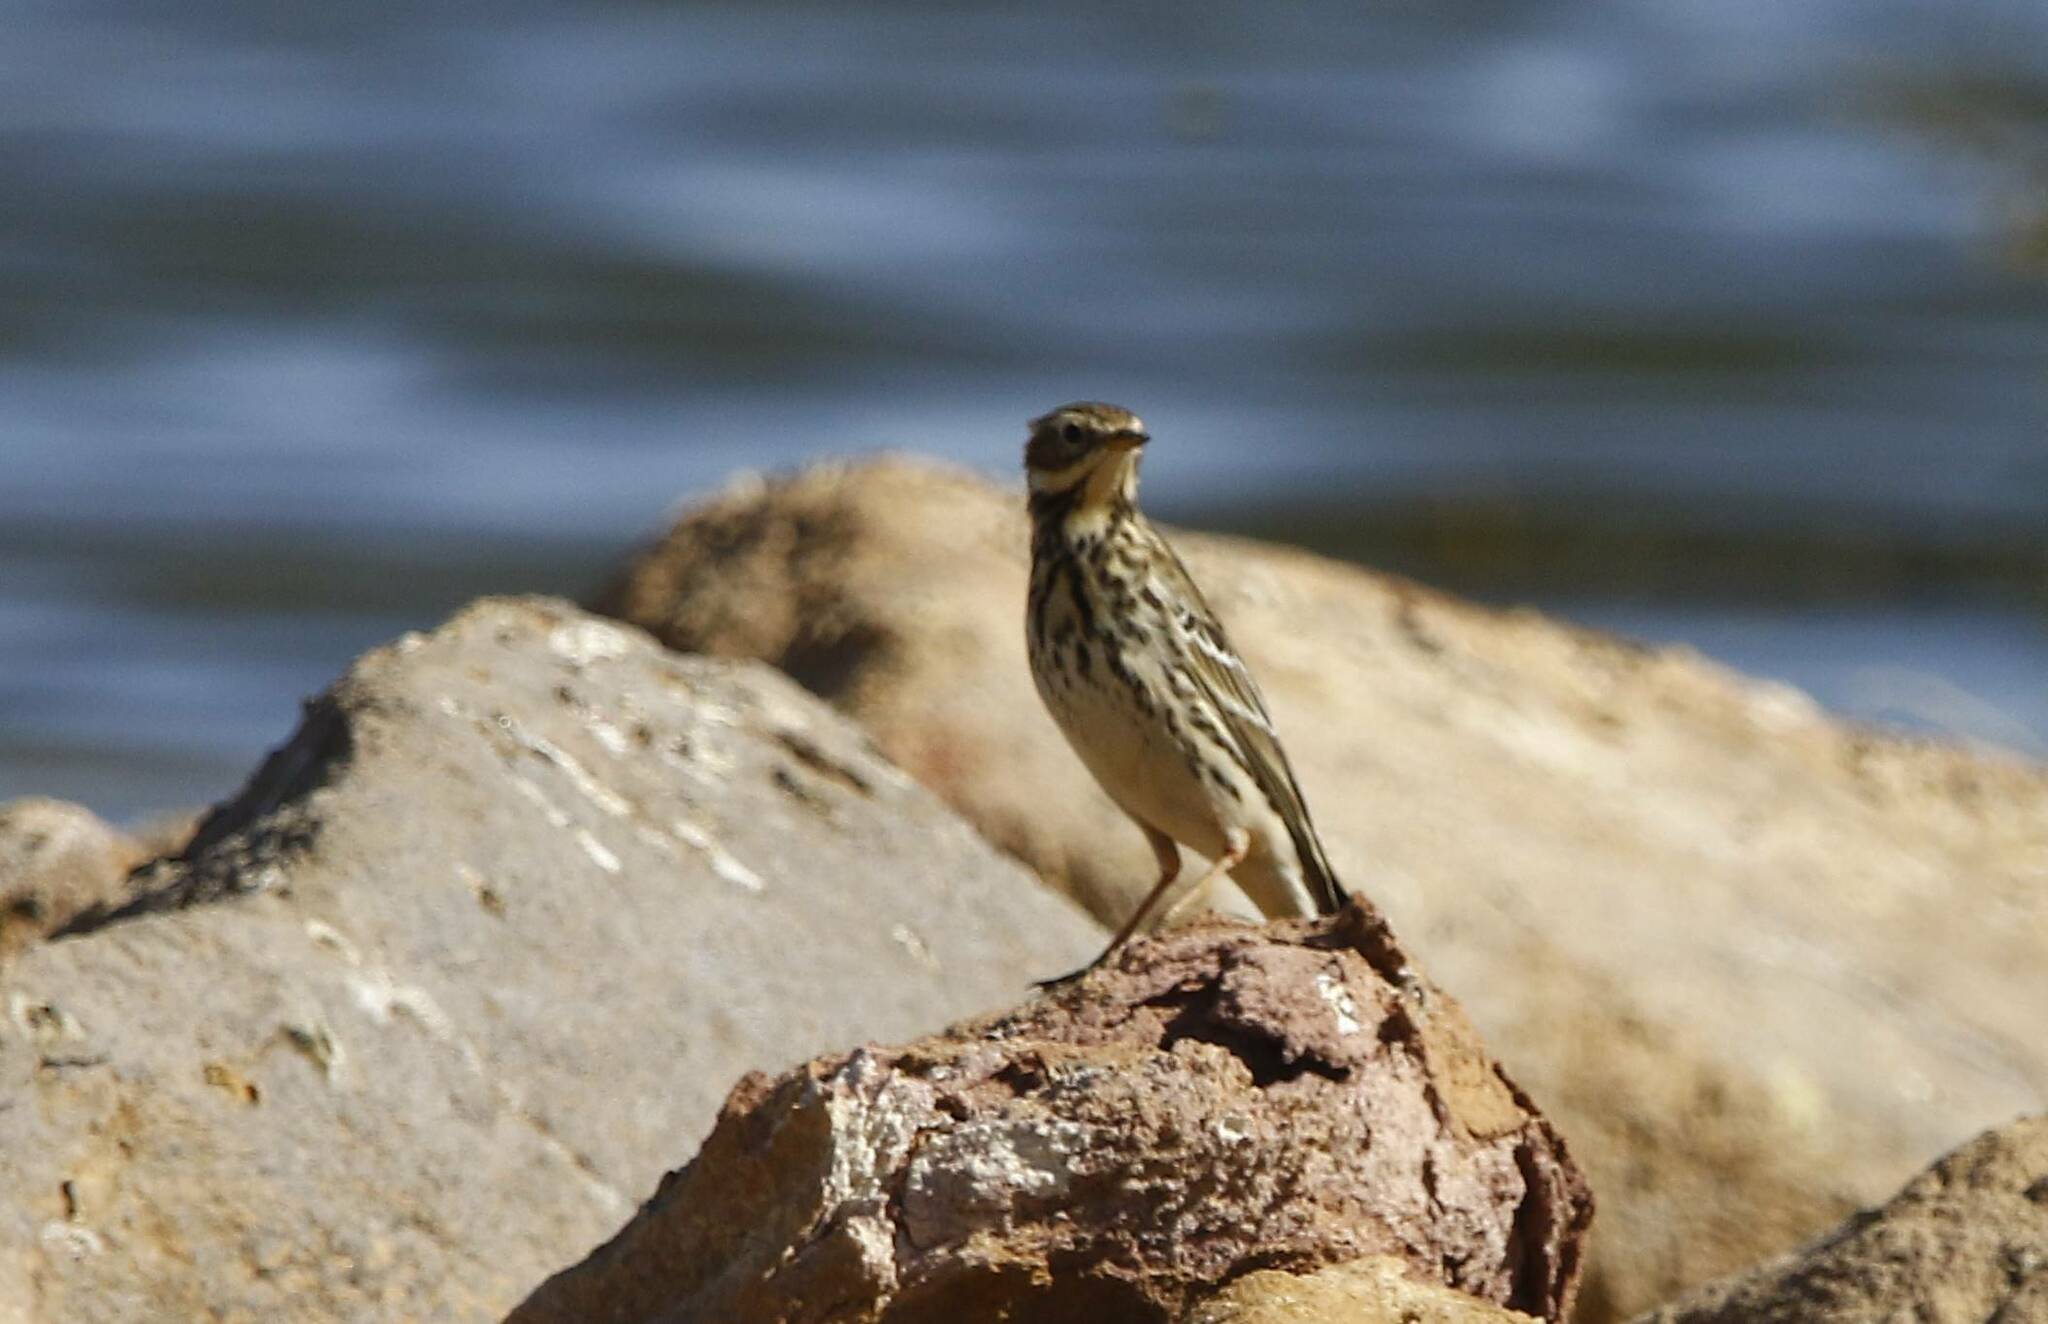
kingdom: Animalia
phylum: Chordata
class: Aves
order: Passeriformes
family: Motacillidae
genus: Anthus
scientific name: Anthus cervinus
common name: Red-throated pipit
